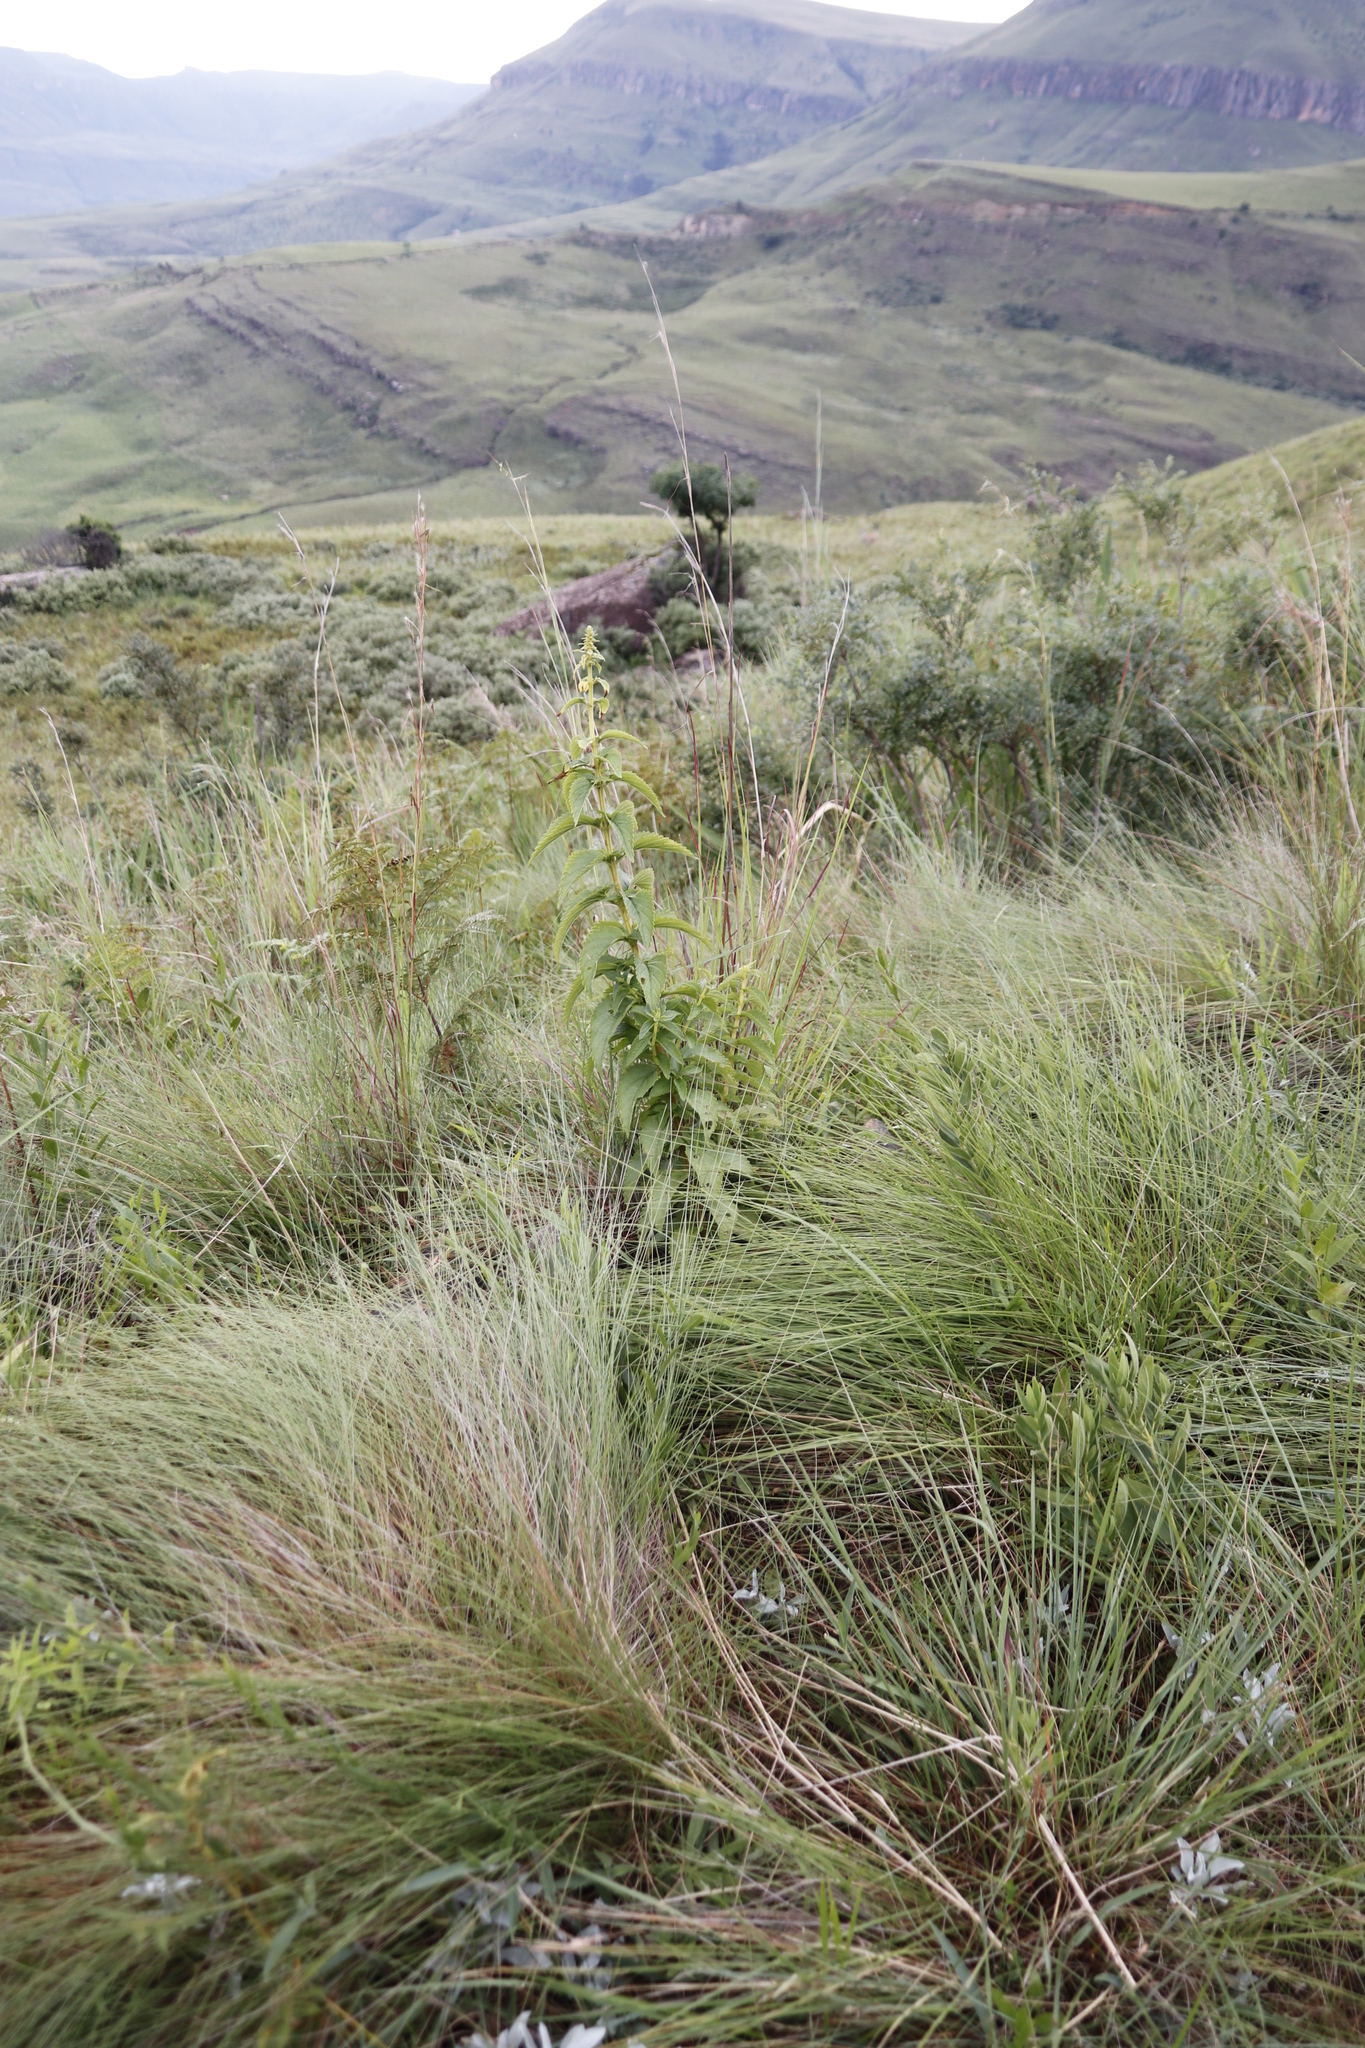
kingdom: Plantae
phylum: Tracheophyta
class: Magnoliopsida
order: Lamiales
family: Lamiaceae
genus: Coleus
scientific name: Coleus calycinus
